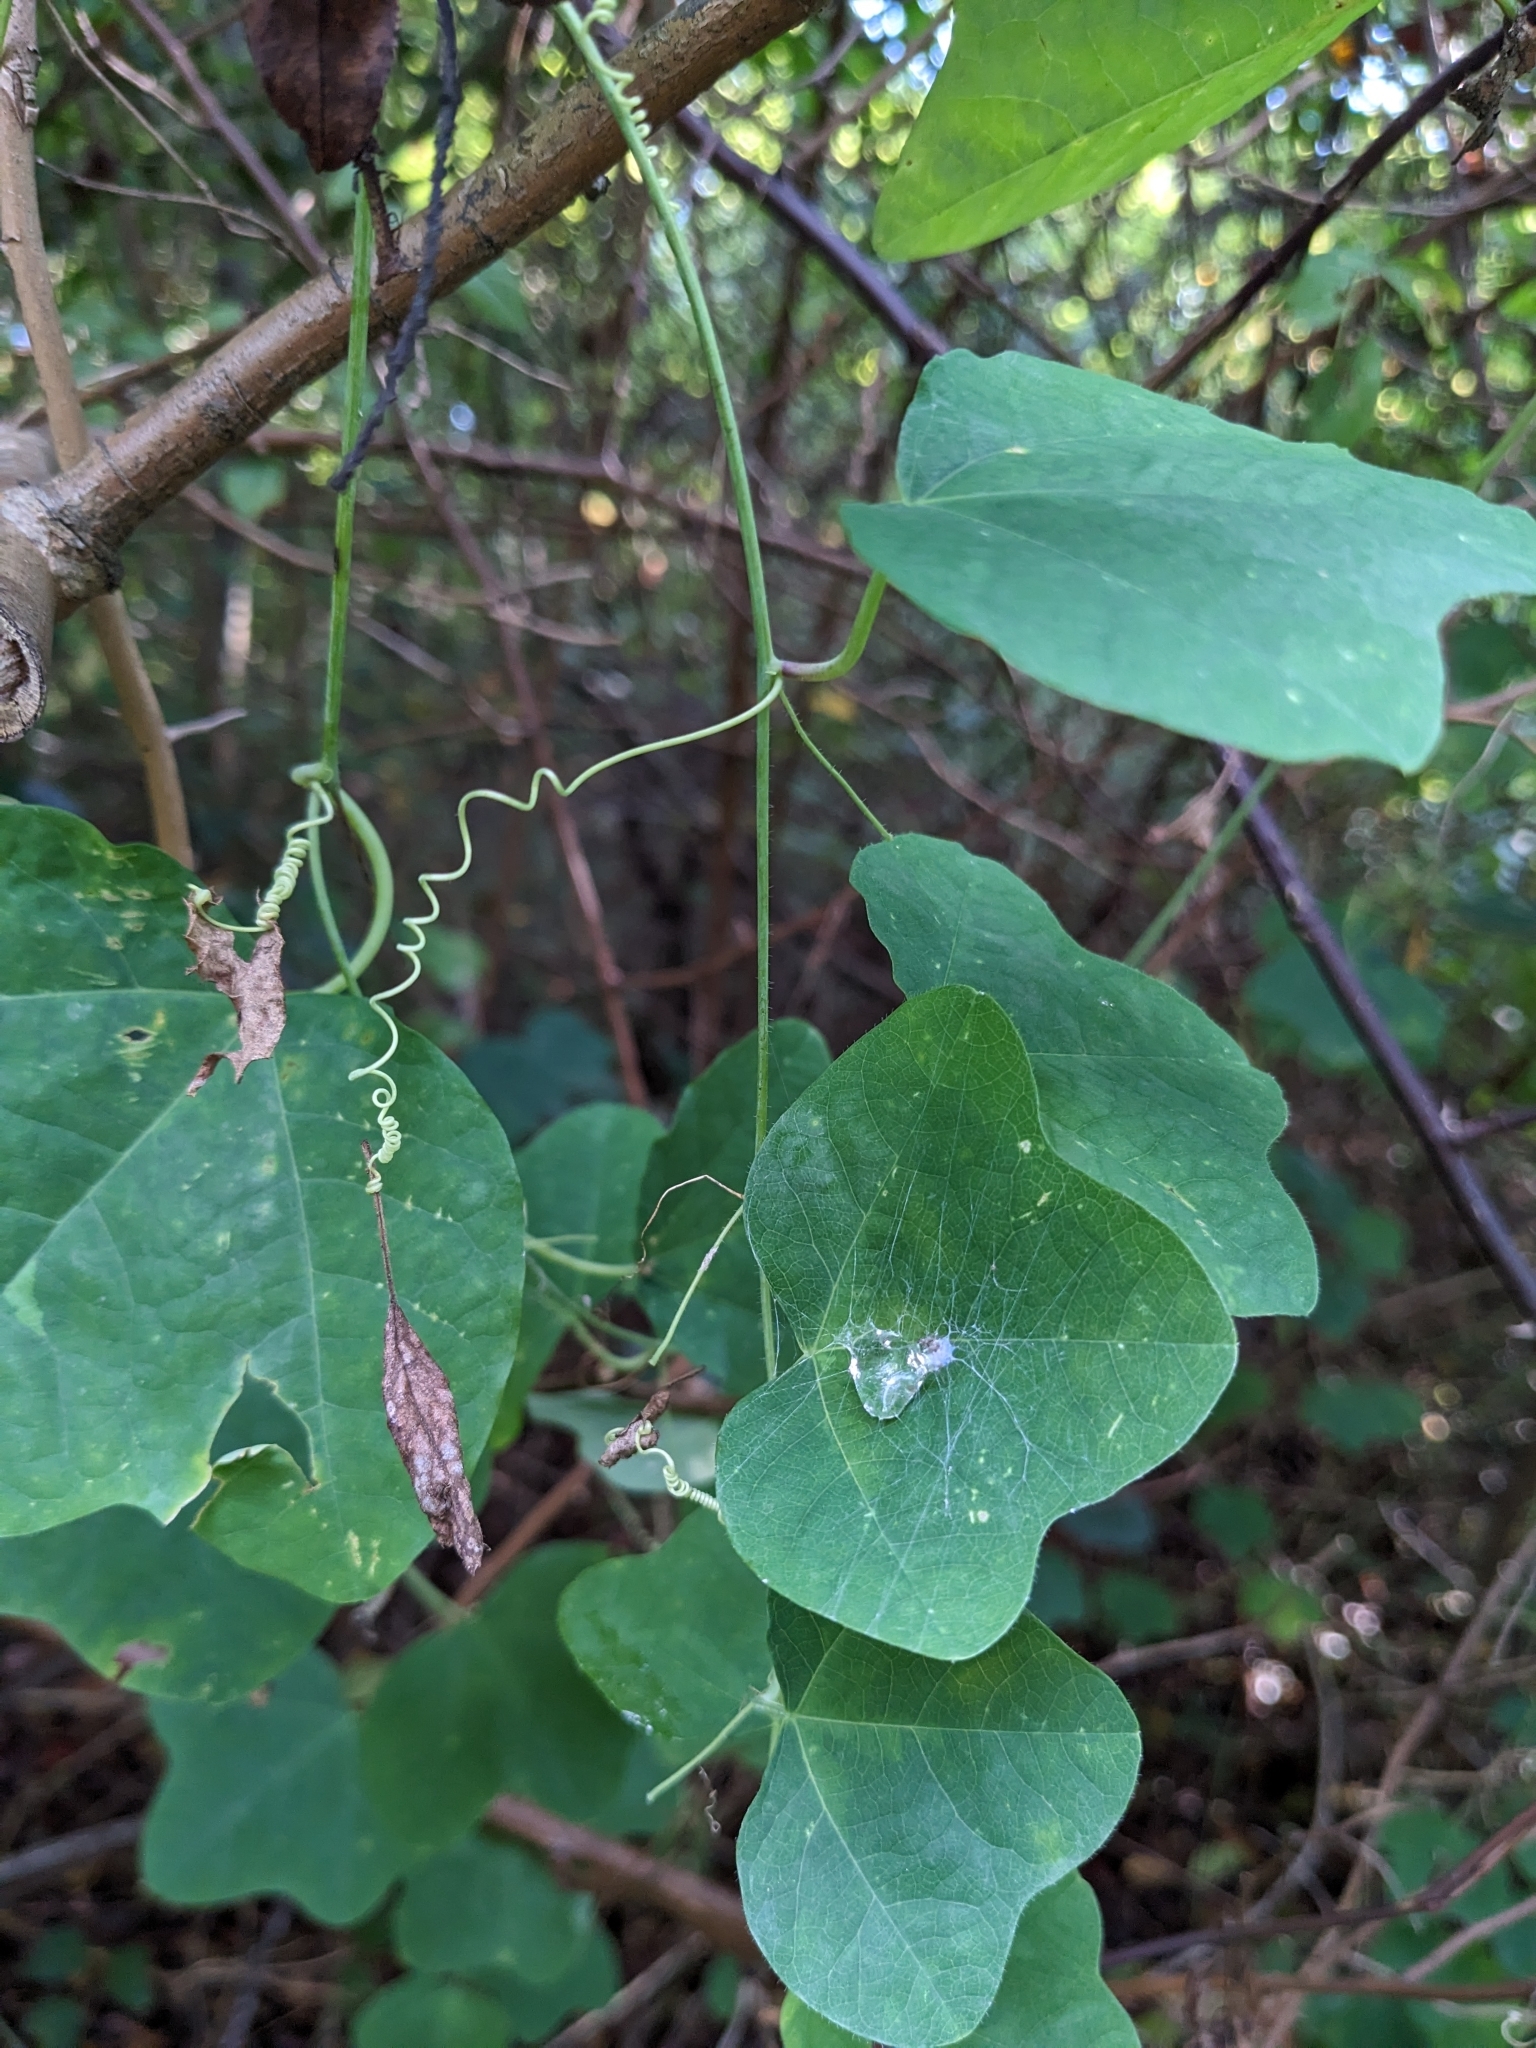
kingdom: Plantae
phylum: Tracheophyta
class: Magnoliopsida
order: Malpighiales
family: Passifloraceae
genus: Passiflora
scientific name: Passiflora lutea
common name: Yellow passionflower
